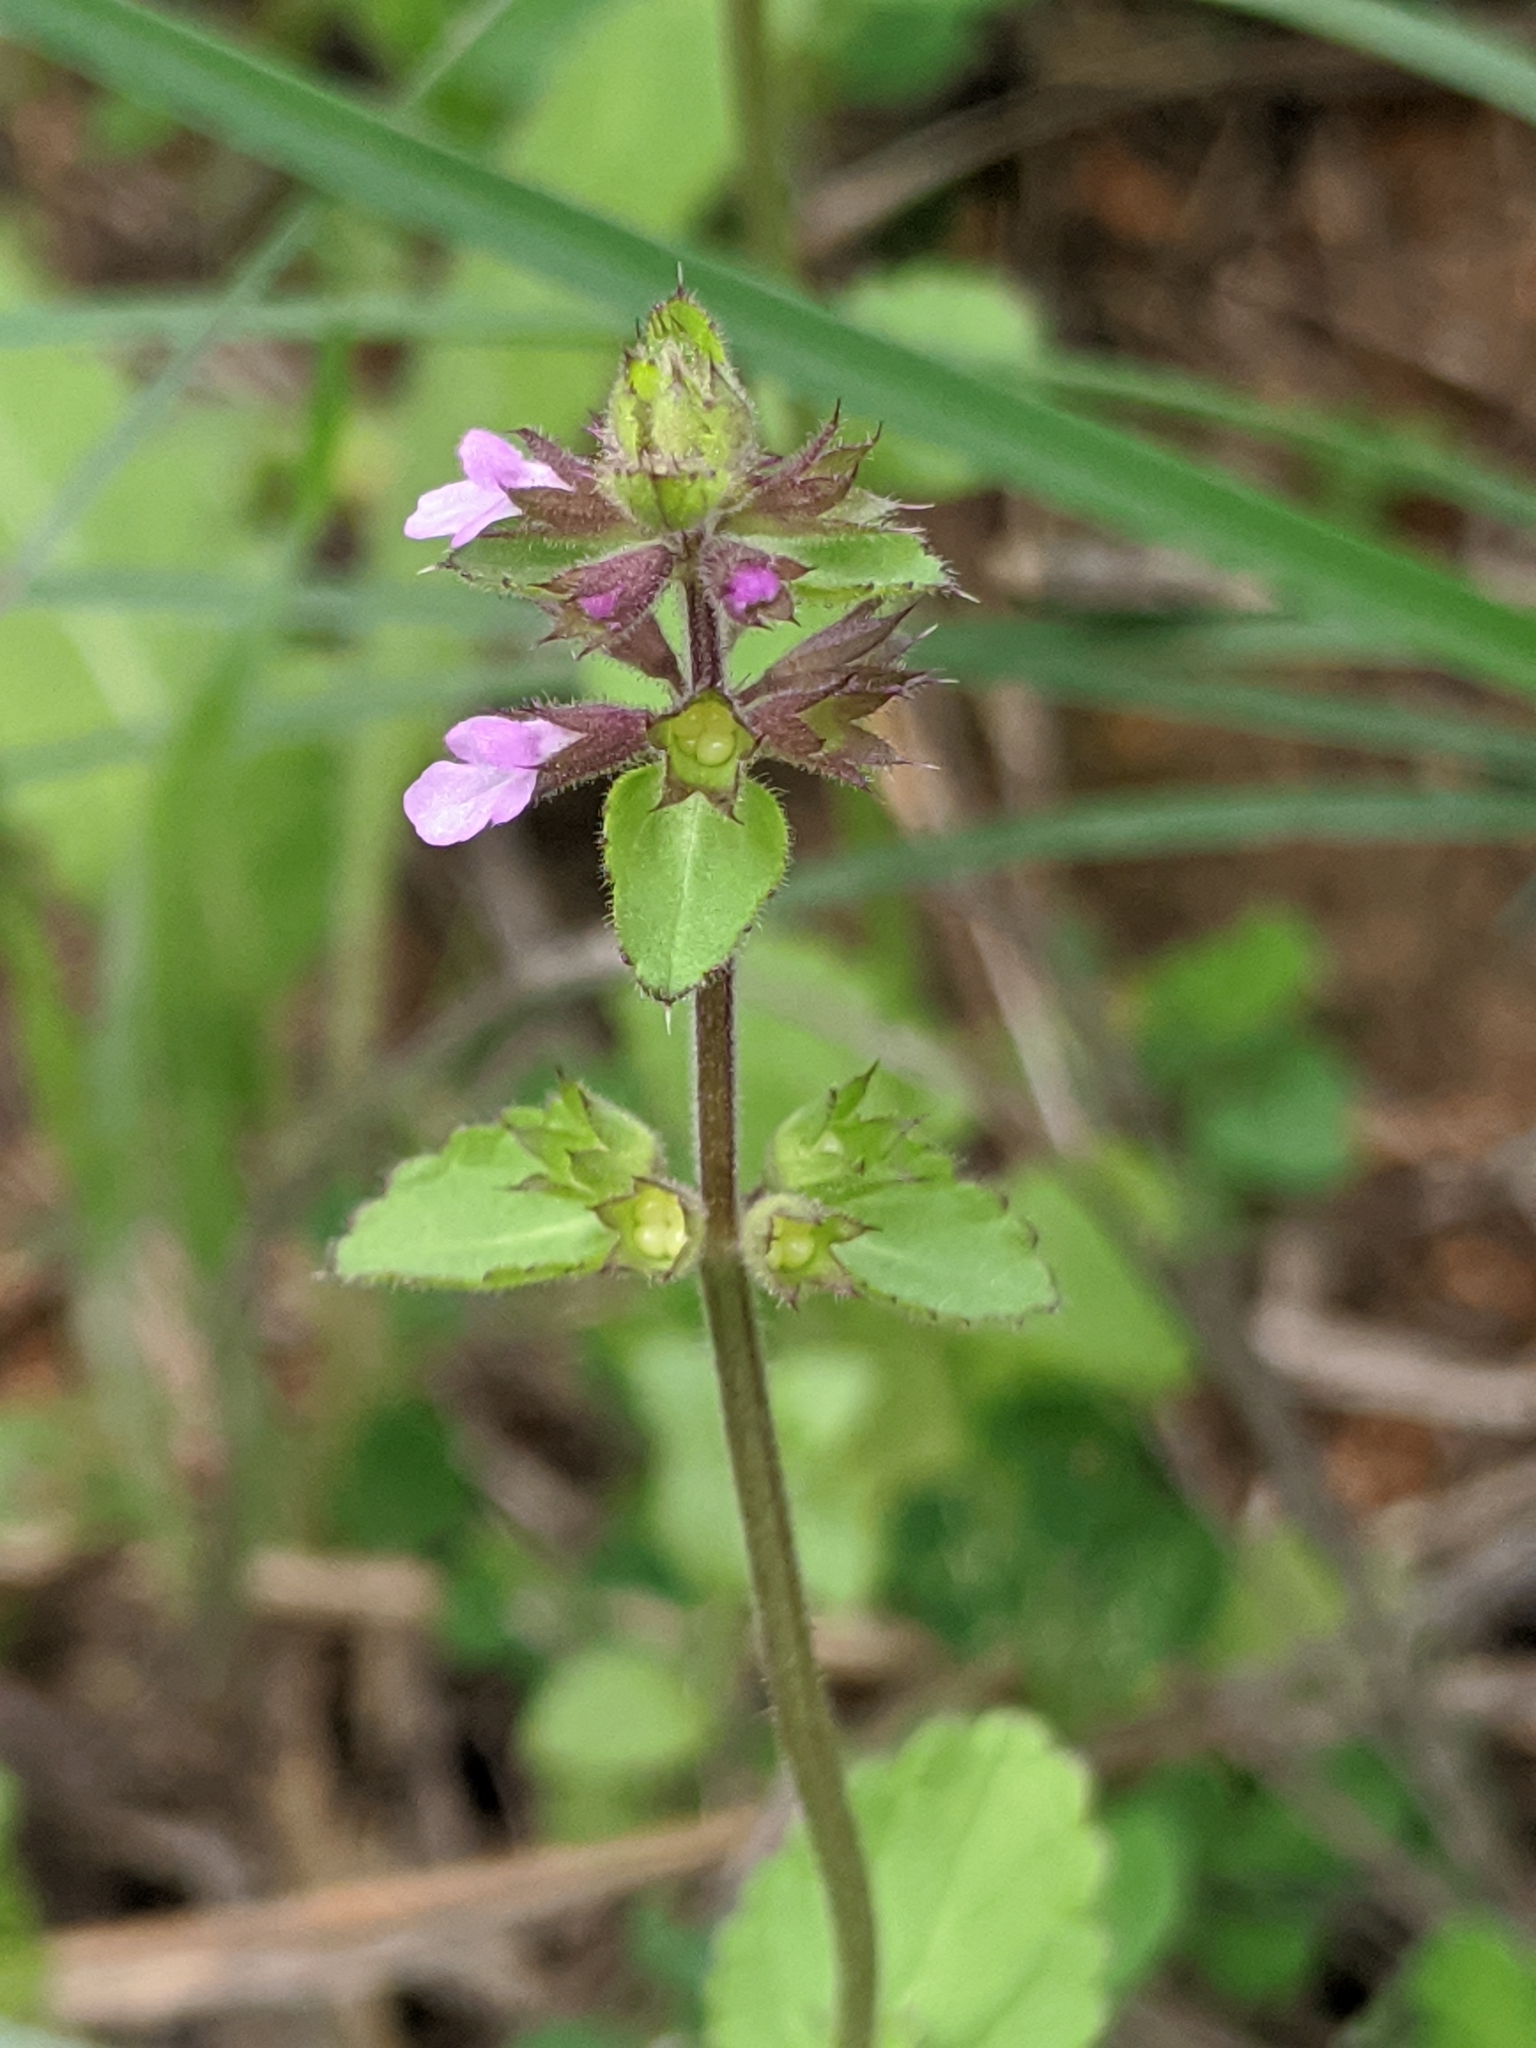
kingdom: Plantae
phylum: Tracheophyta
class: Magnoliopsida
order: Lamiales
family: Lamiaceae
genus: Stachys
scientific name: Stachys
